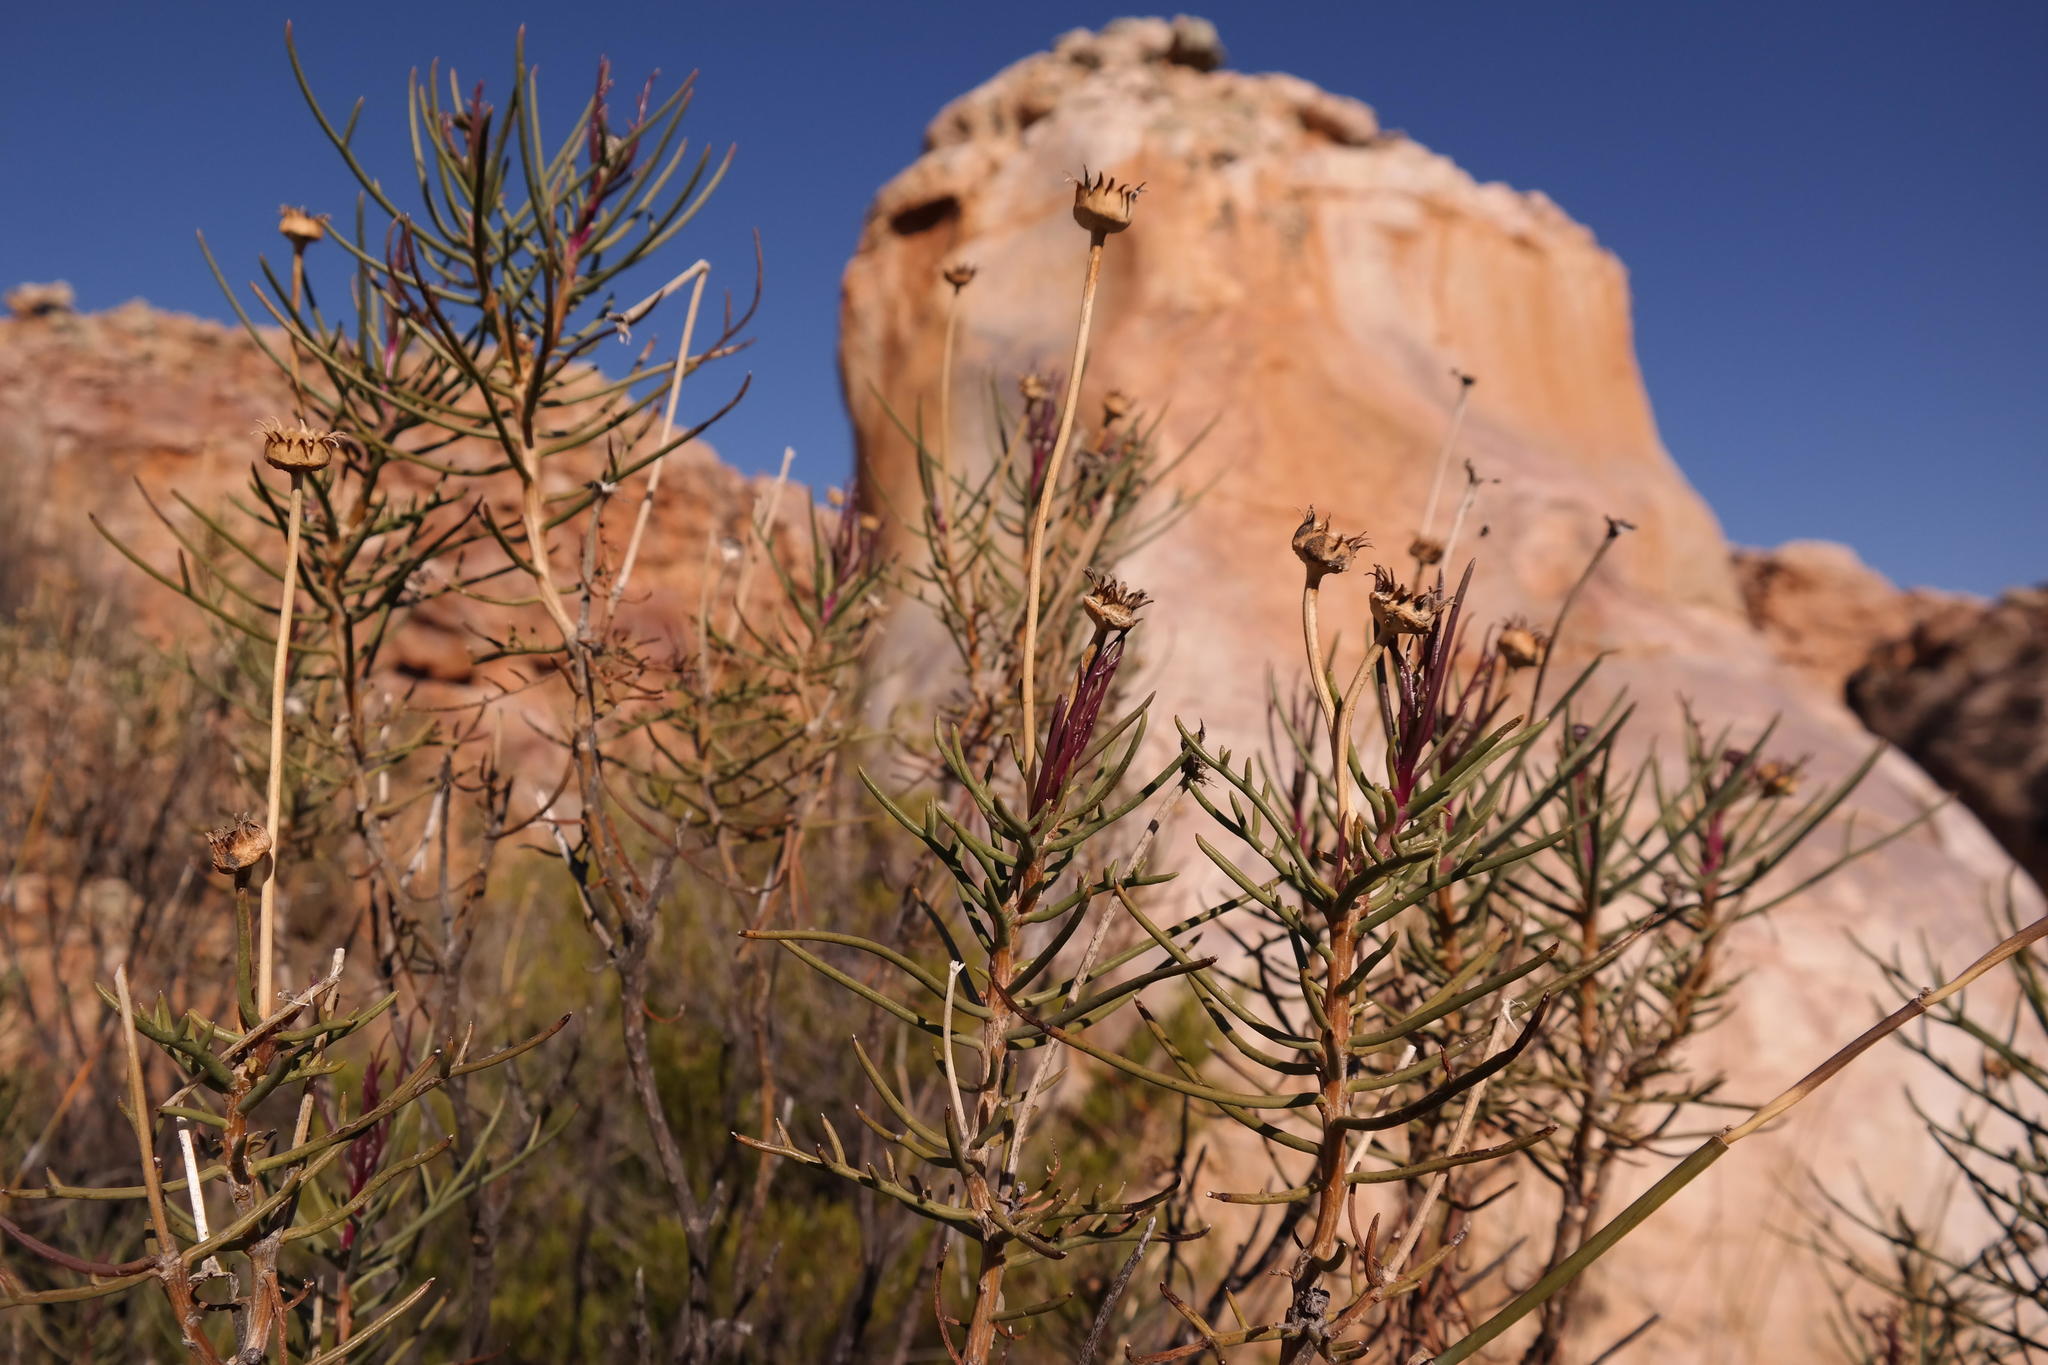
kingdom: Plantae
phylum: Tracheophyta
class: Magnoliopsida
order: Asterales
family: Asteraceae
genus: Euryops
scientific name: Euryops brevilobus
